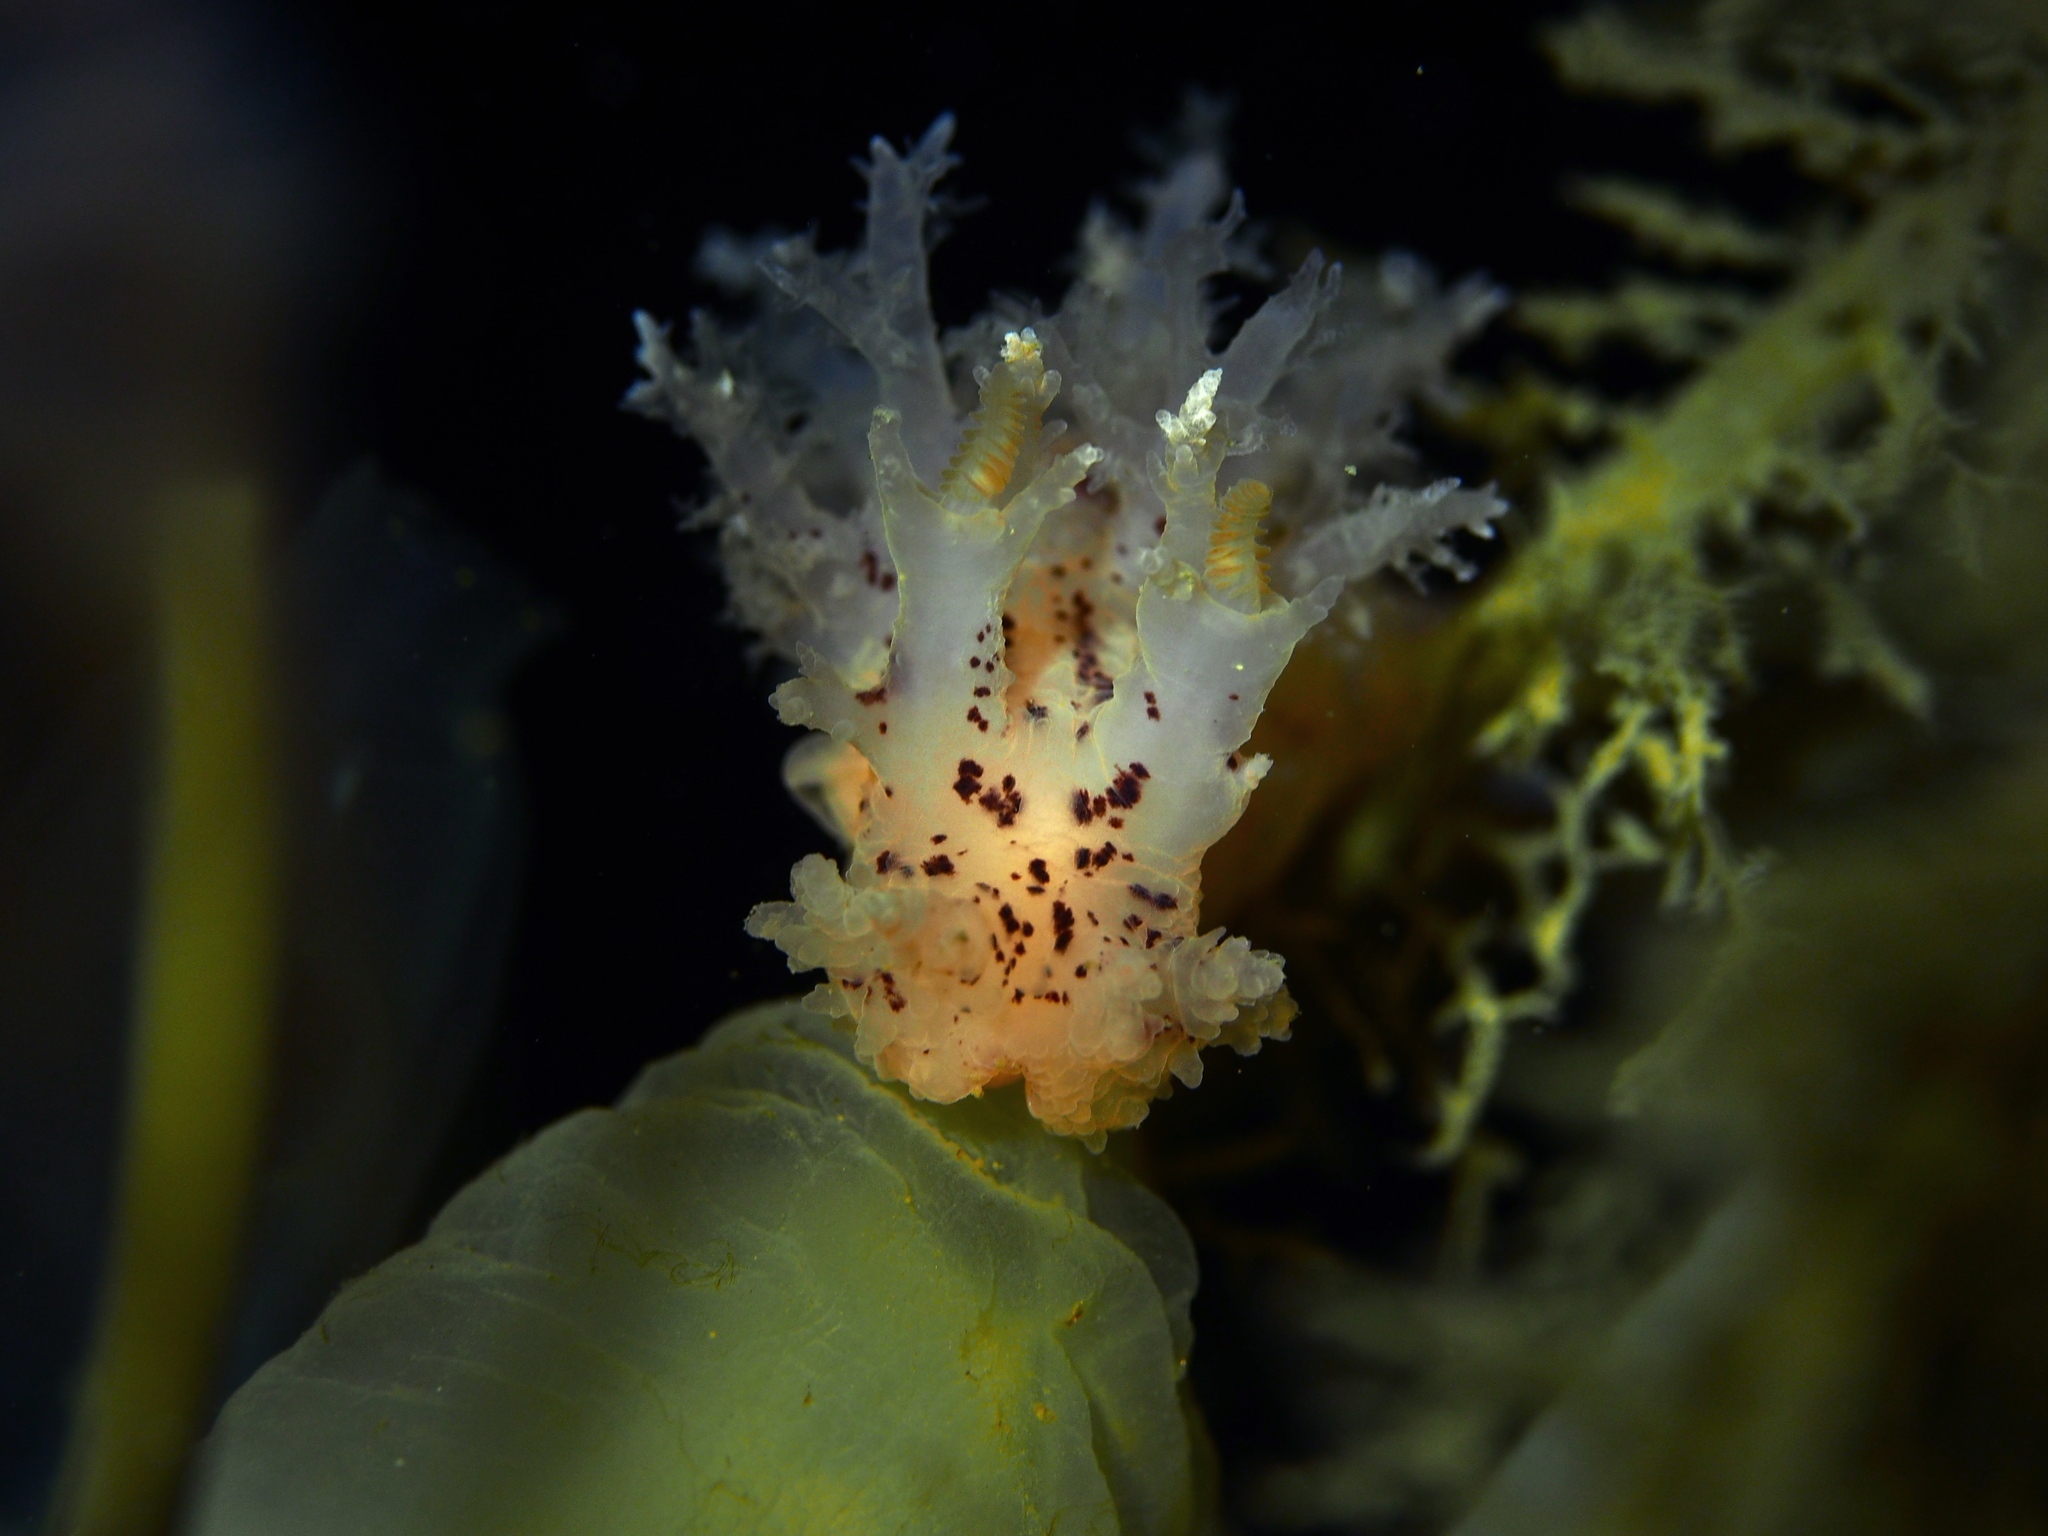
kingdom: Animalia
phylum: Mollusca
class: Gastropoda
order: Nudibranchia
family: Dendronotidae
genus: Dendronotus
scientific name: Dendronotus lacteus
